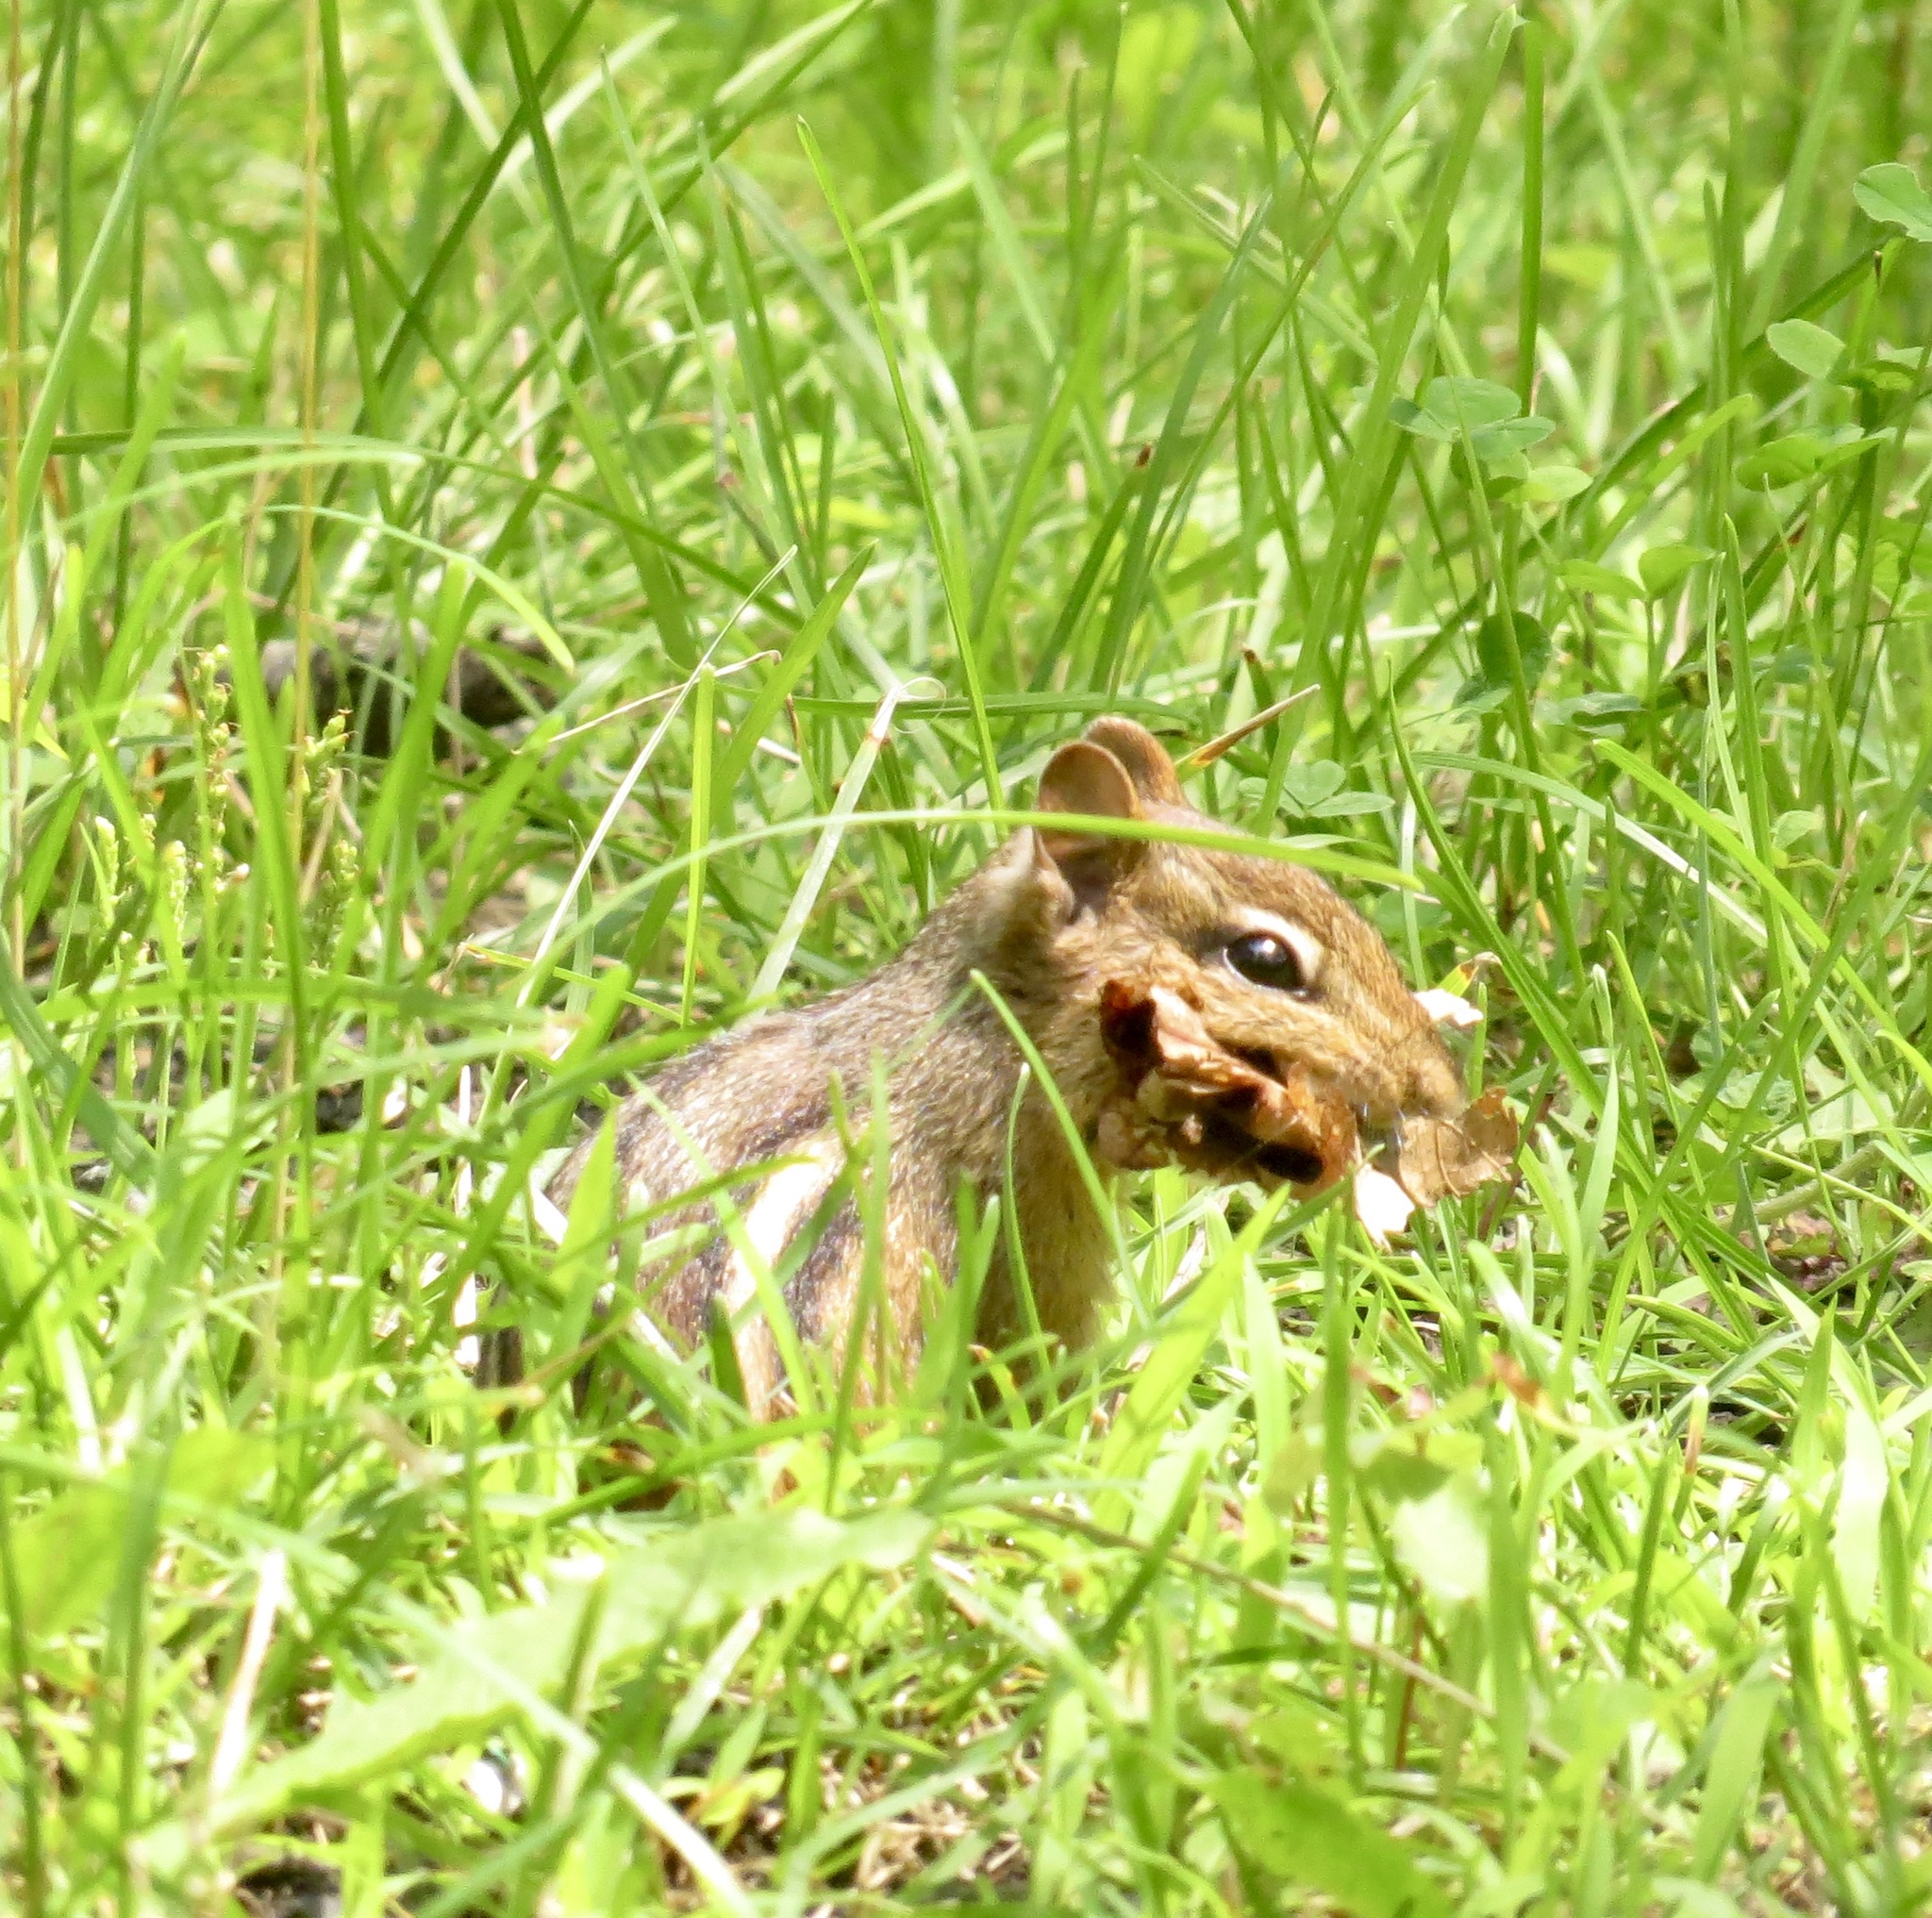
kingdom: Animalia
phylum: Chordata
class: Mammalia
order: Rodentia
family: Sciuridae
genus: Tamias
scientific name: Tamias striatus
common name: Eastern chipmunk
